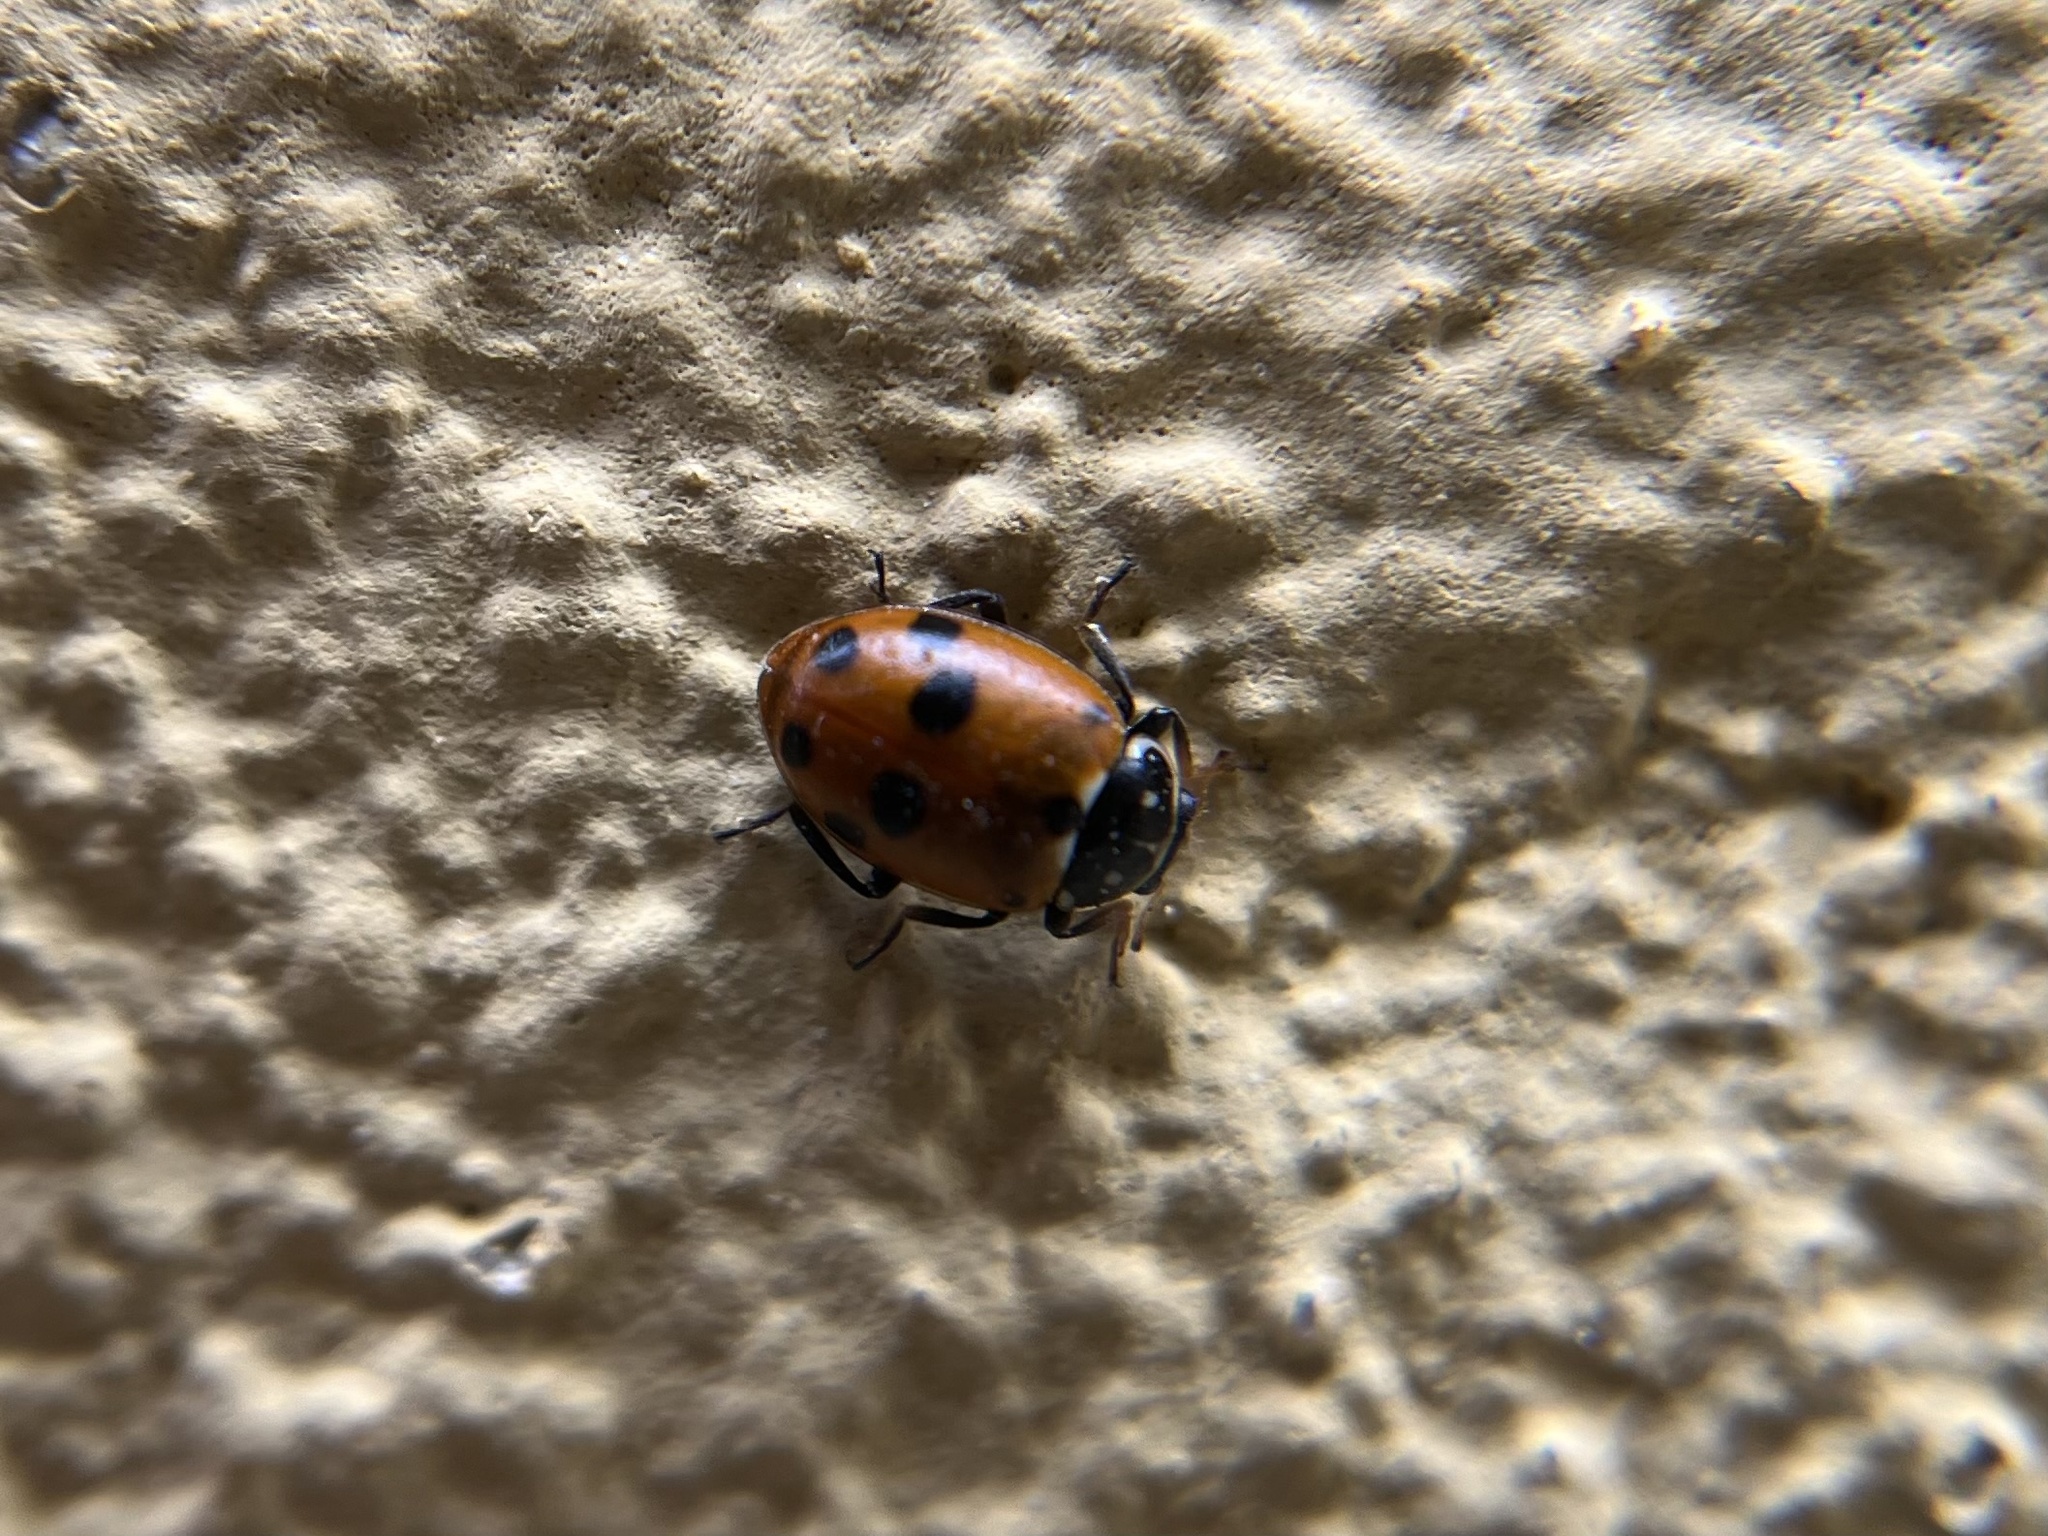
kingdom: Animalia
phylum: Arthropoda
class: Insecta
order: Coleoptera
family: Coccinellidae
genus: Hippodamia
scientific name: Hippodamia variegata
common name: Ladybird beetle
